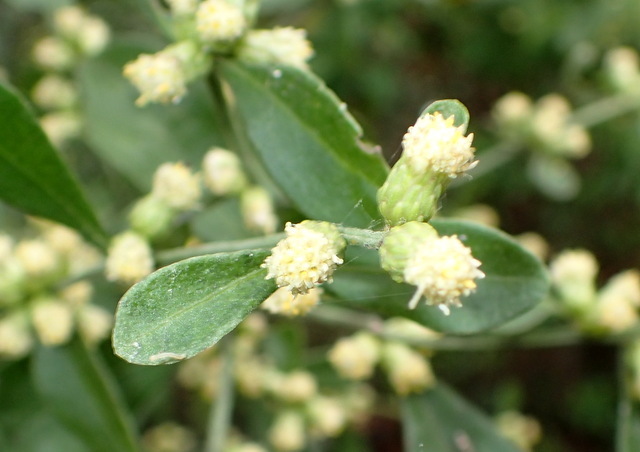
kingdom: Plantae
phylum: Tracheophyta
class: Magnoliopsida
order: Asterales
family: Asteraceae
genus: Baccharis
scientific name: Baccharis glomeruliflora
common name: Silverling groundsel bush
